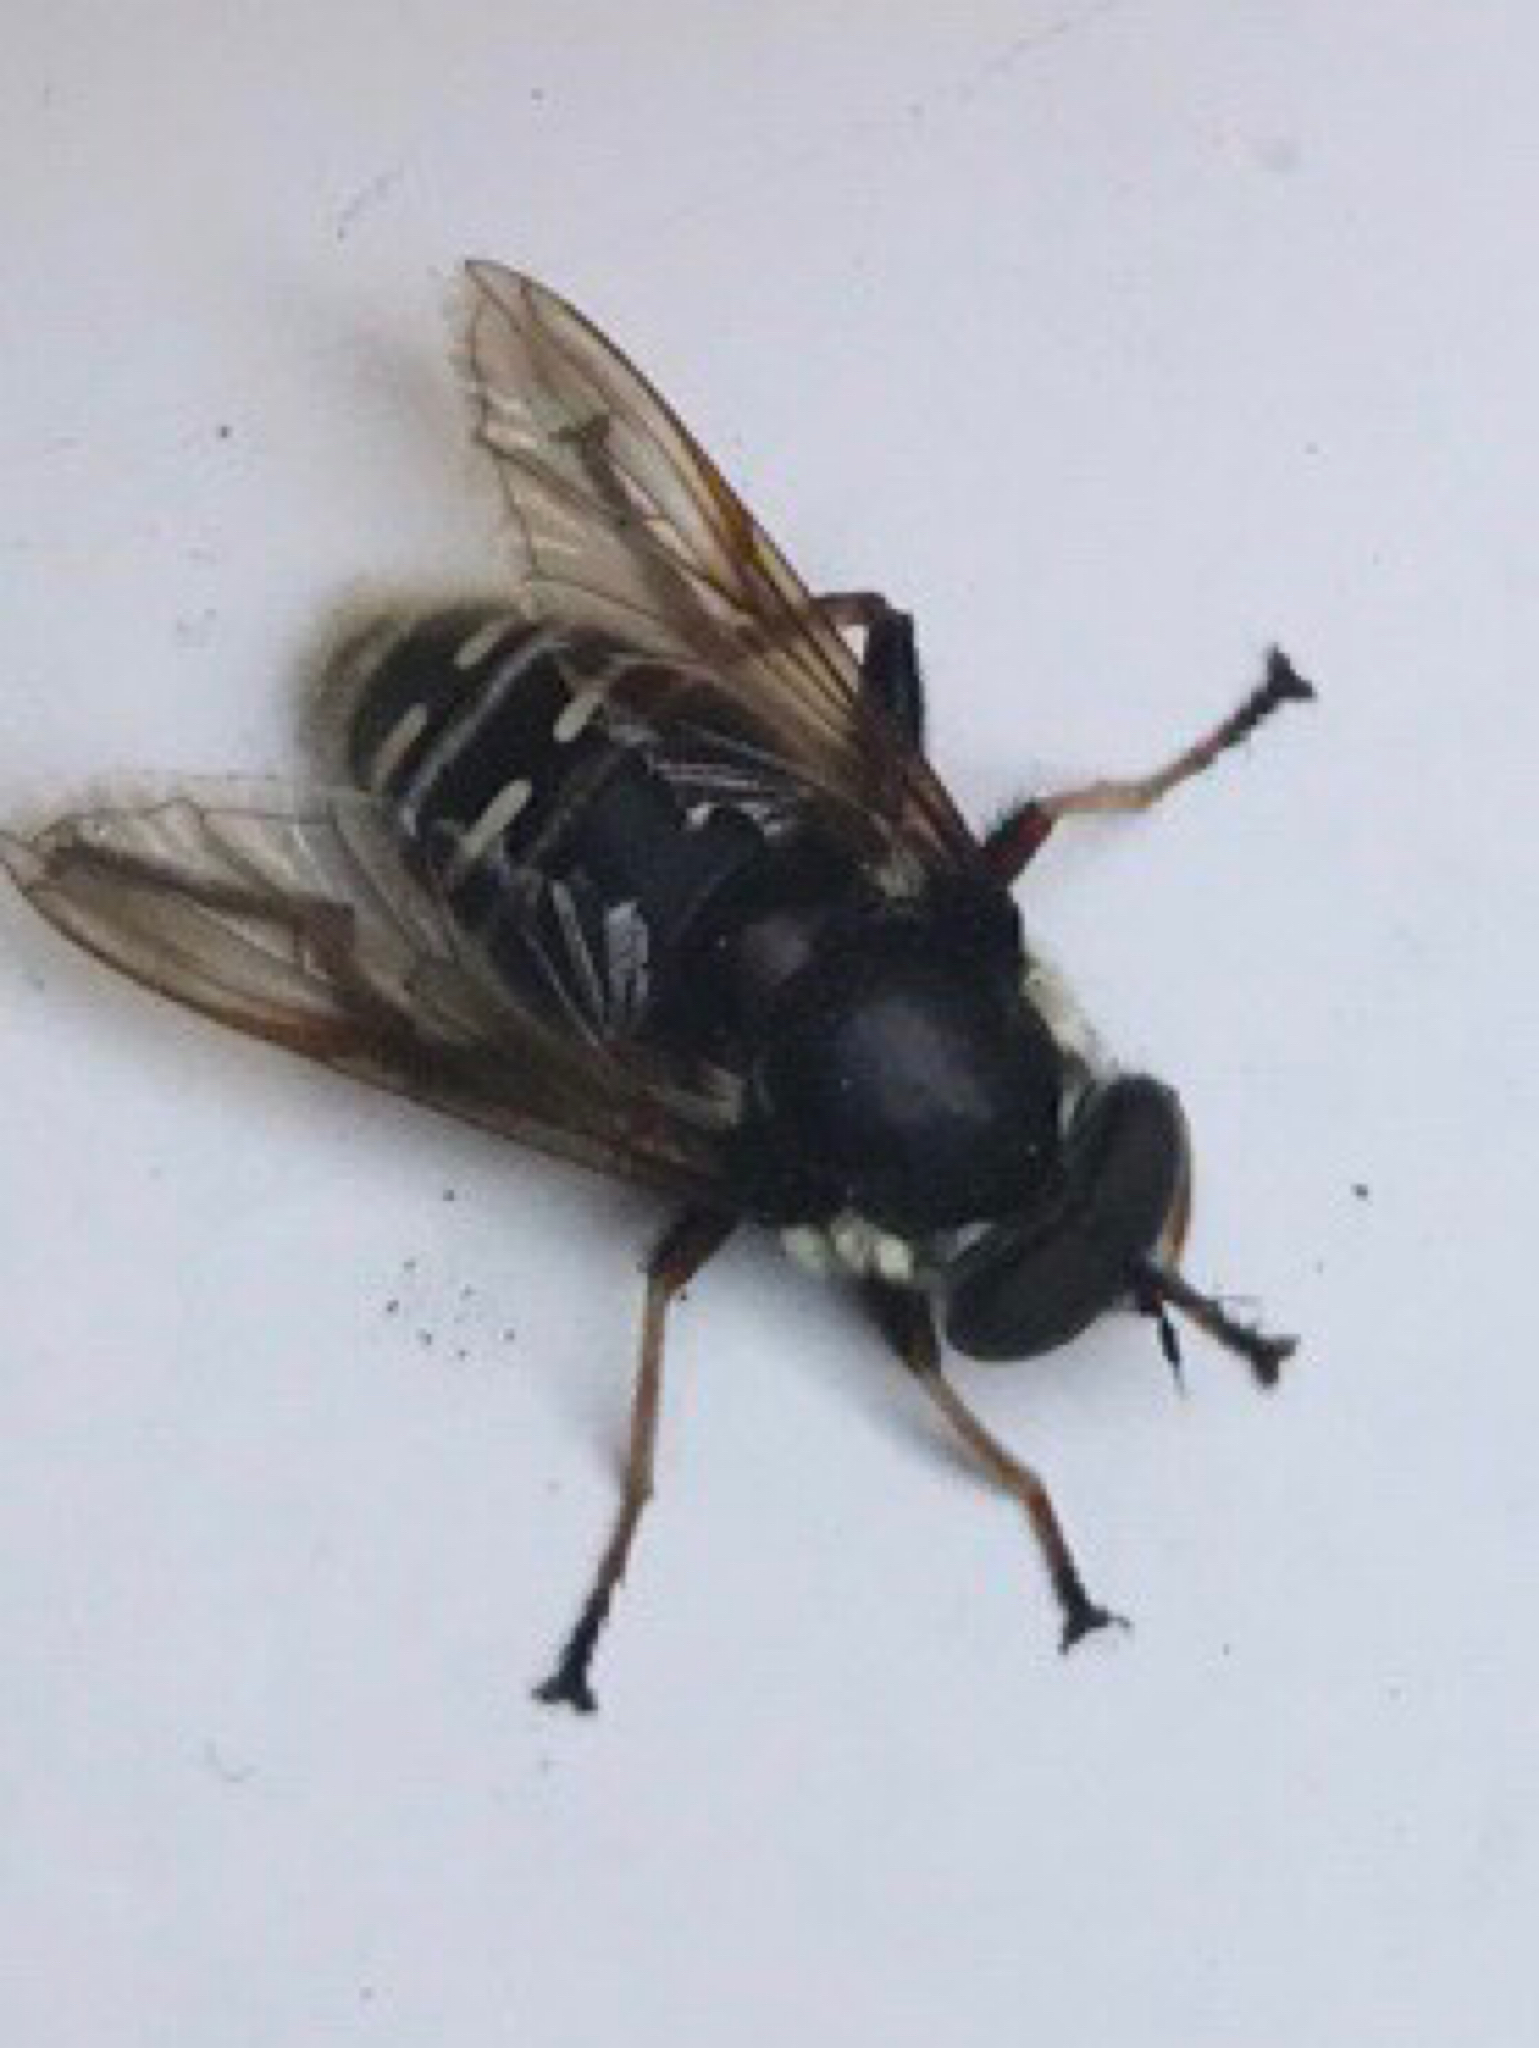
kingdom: Animalia
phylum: Arthropoda
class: Insecta
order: Diptera
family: Syrphidae
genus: Sericomyia
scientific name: Sericomyia militaris
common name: Narrow-banded pond fly
